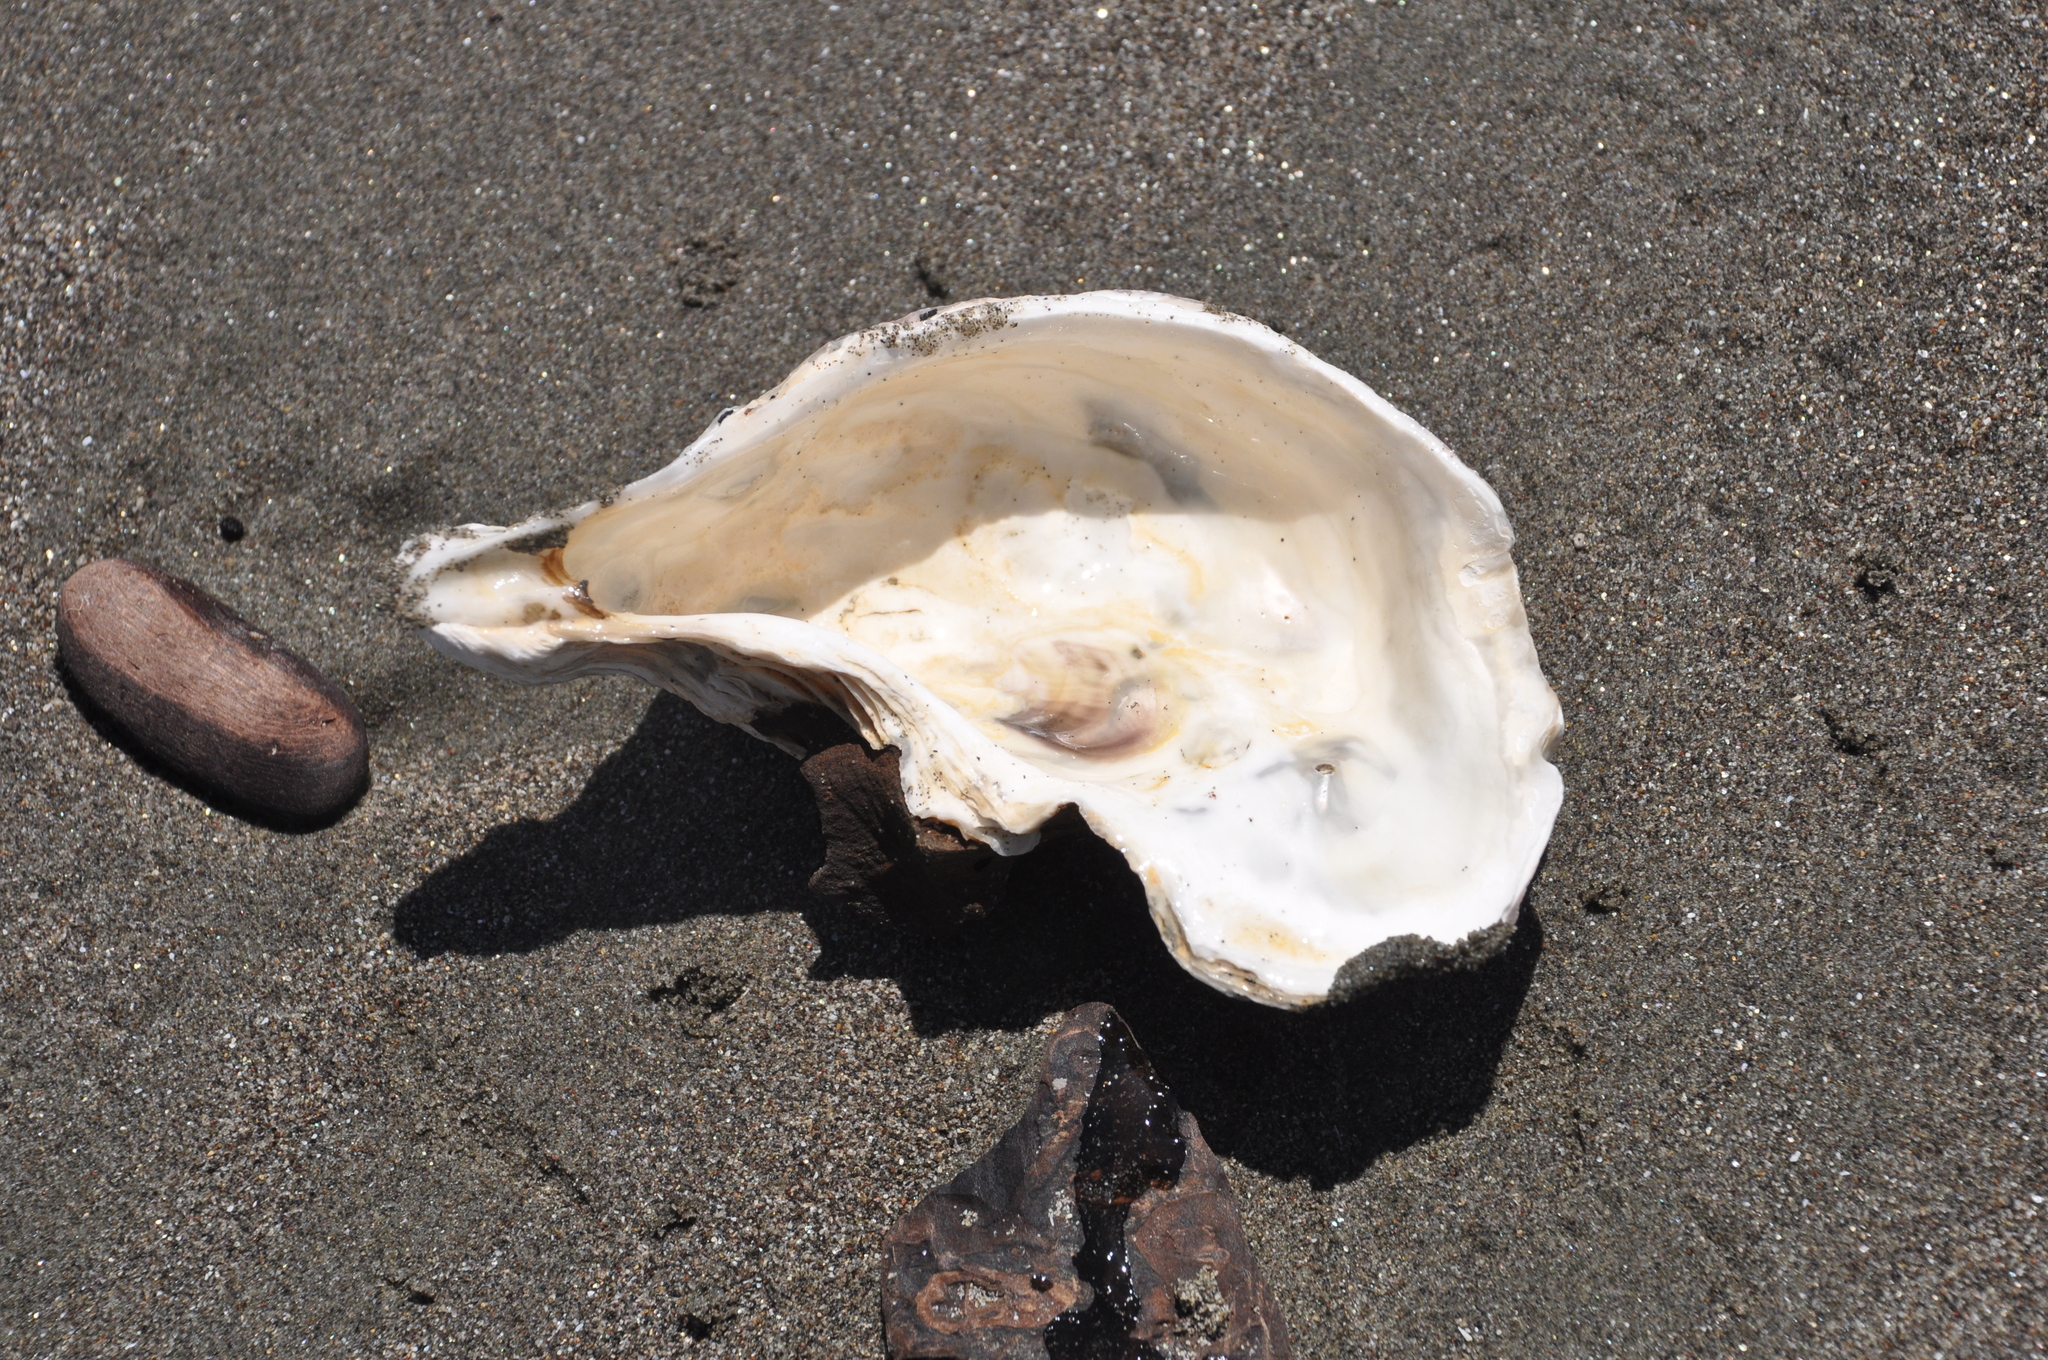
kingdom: Animalia
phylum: Mollusca
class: Bivalvia
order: Ostreida
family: Ostreidae
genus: Magallana
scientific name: Magallana gigas
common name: Pacific oyster
